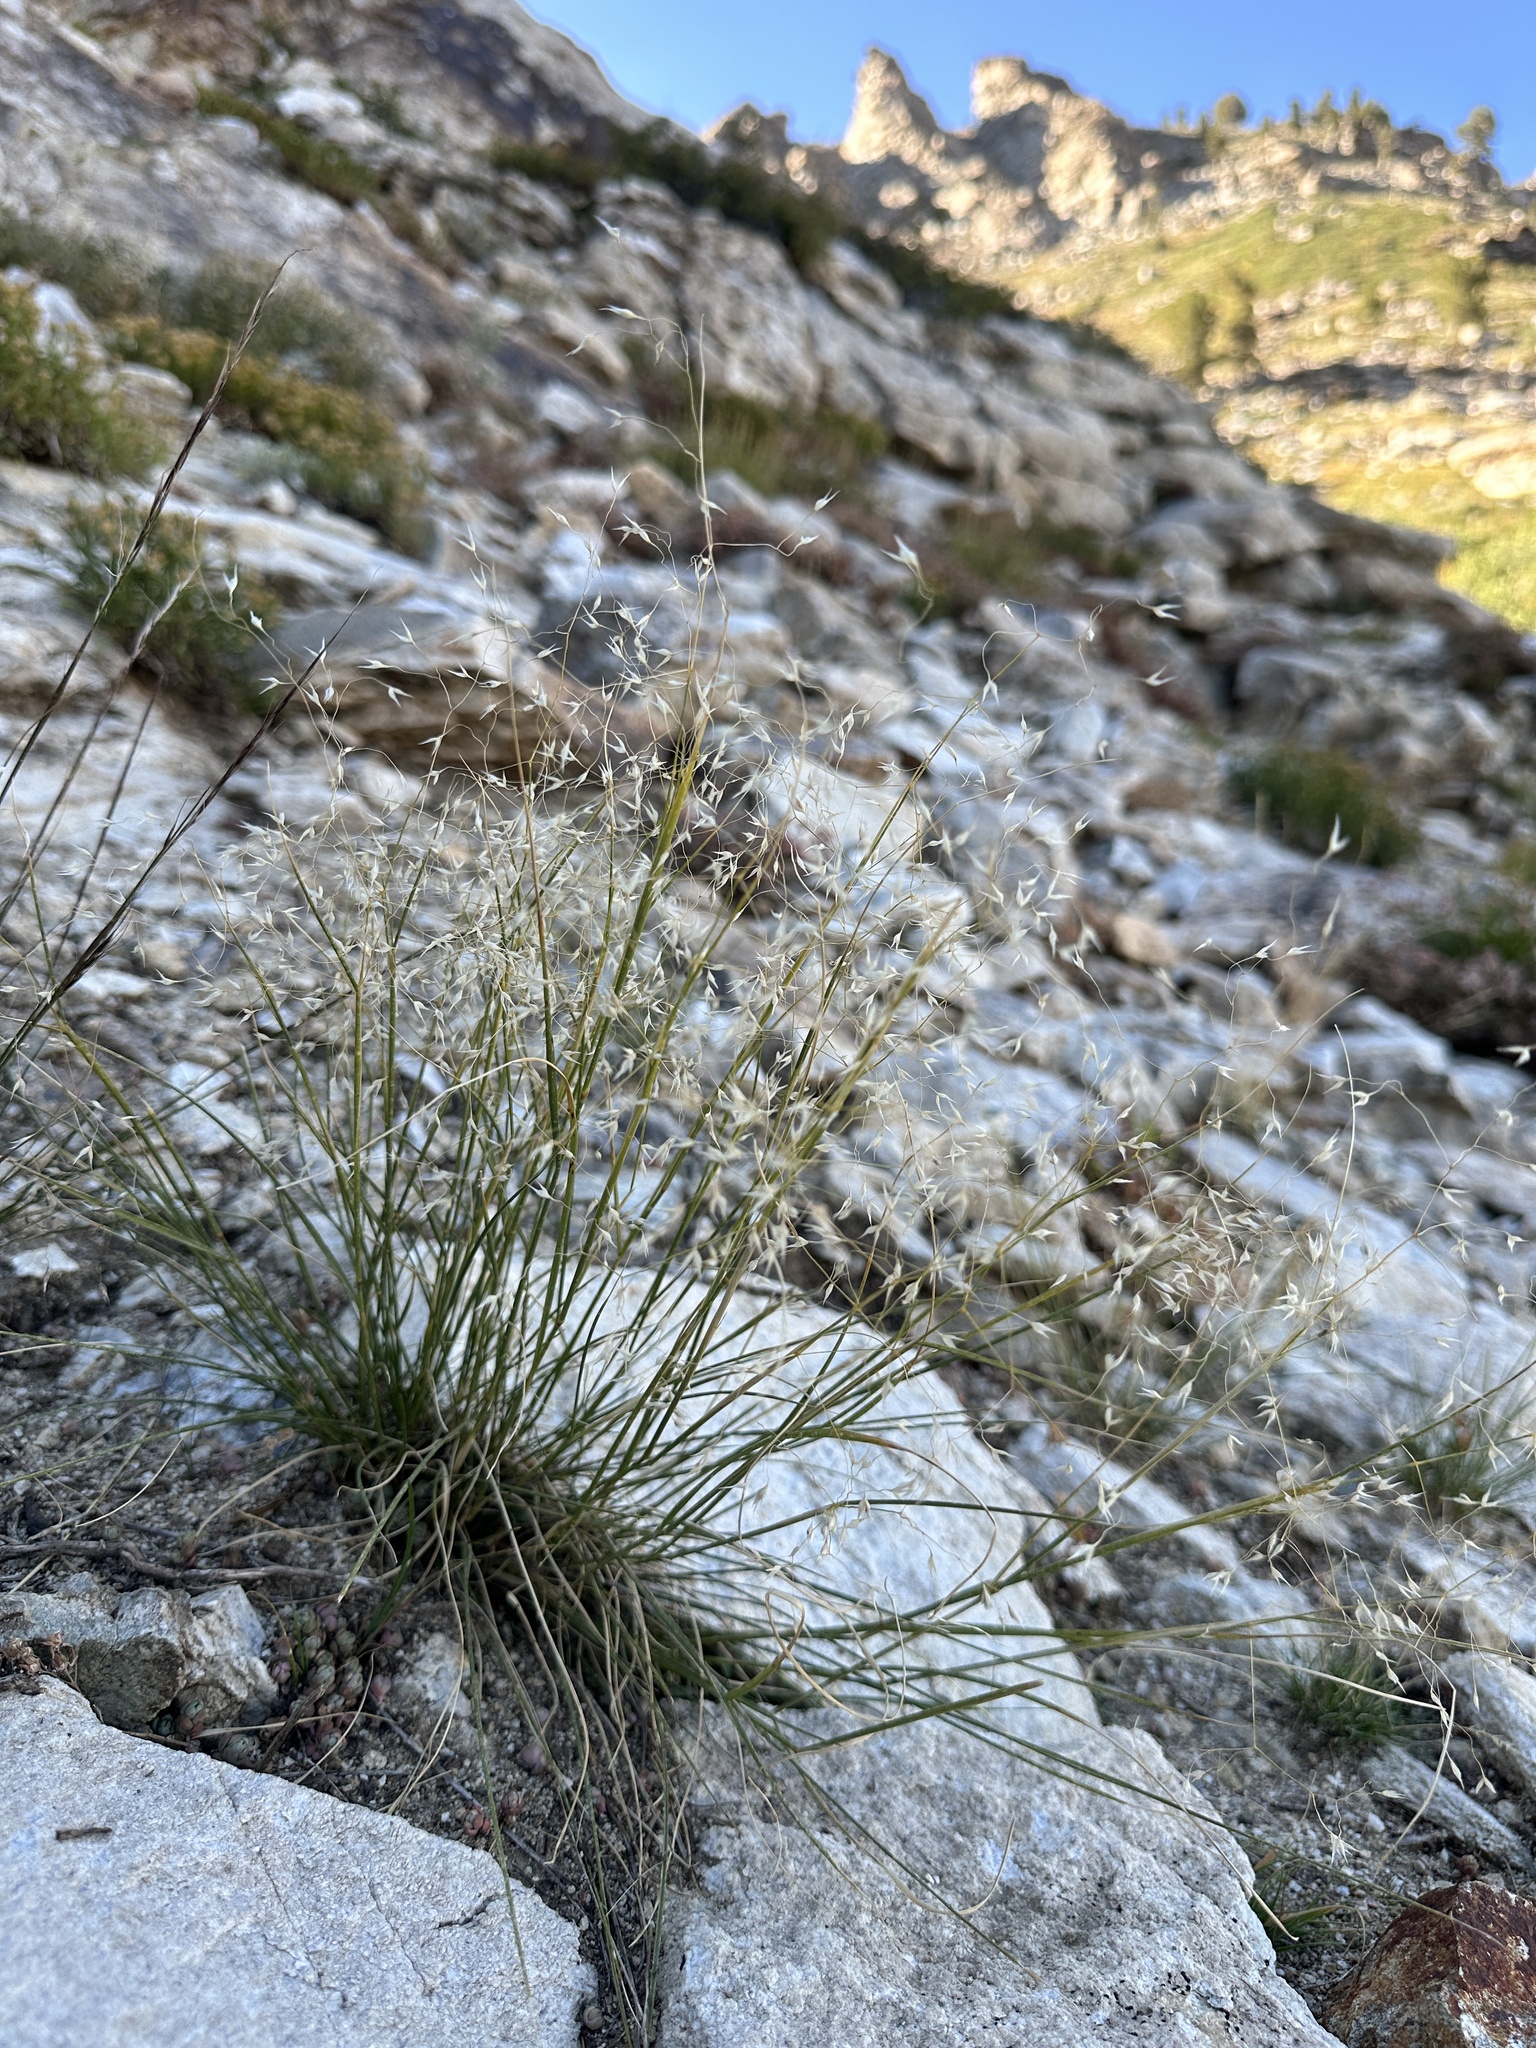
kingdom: Plantae
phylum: Tracheophyta
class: Liliopsida
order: Poales
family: Poaceae
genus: Eriocoma
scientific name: Eriocoma hymenoides
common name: Indian mountain ricegrass
